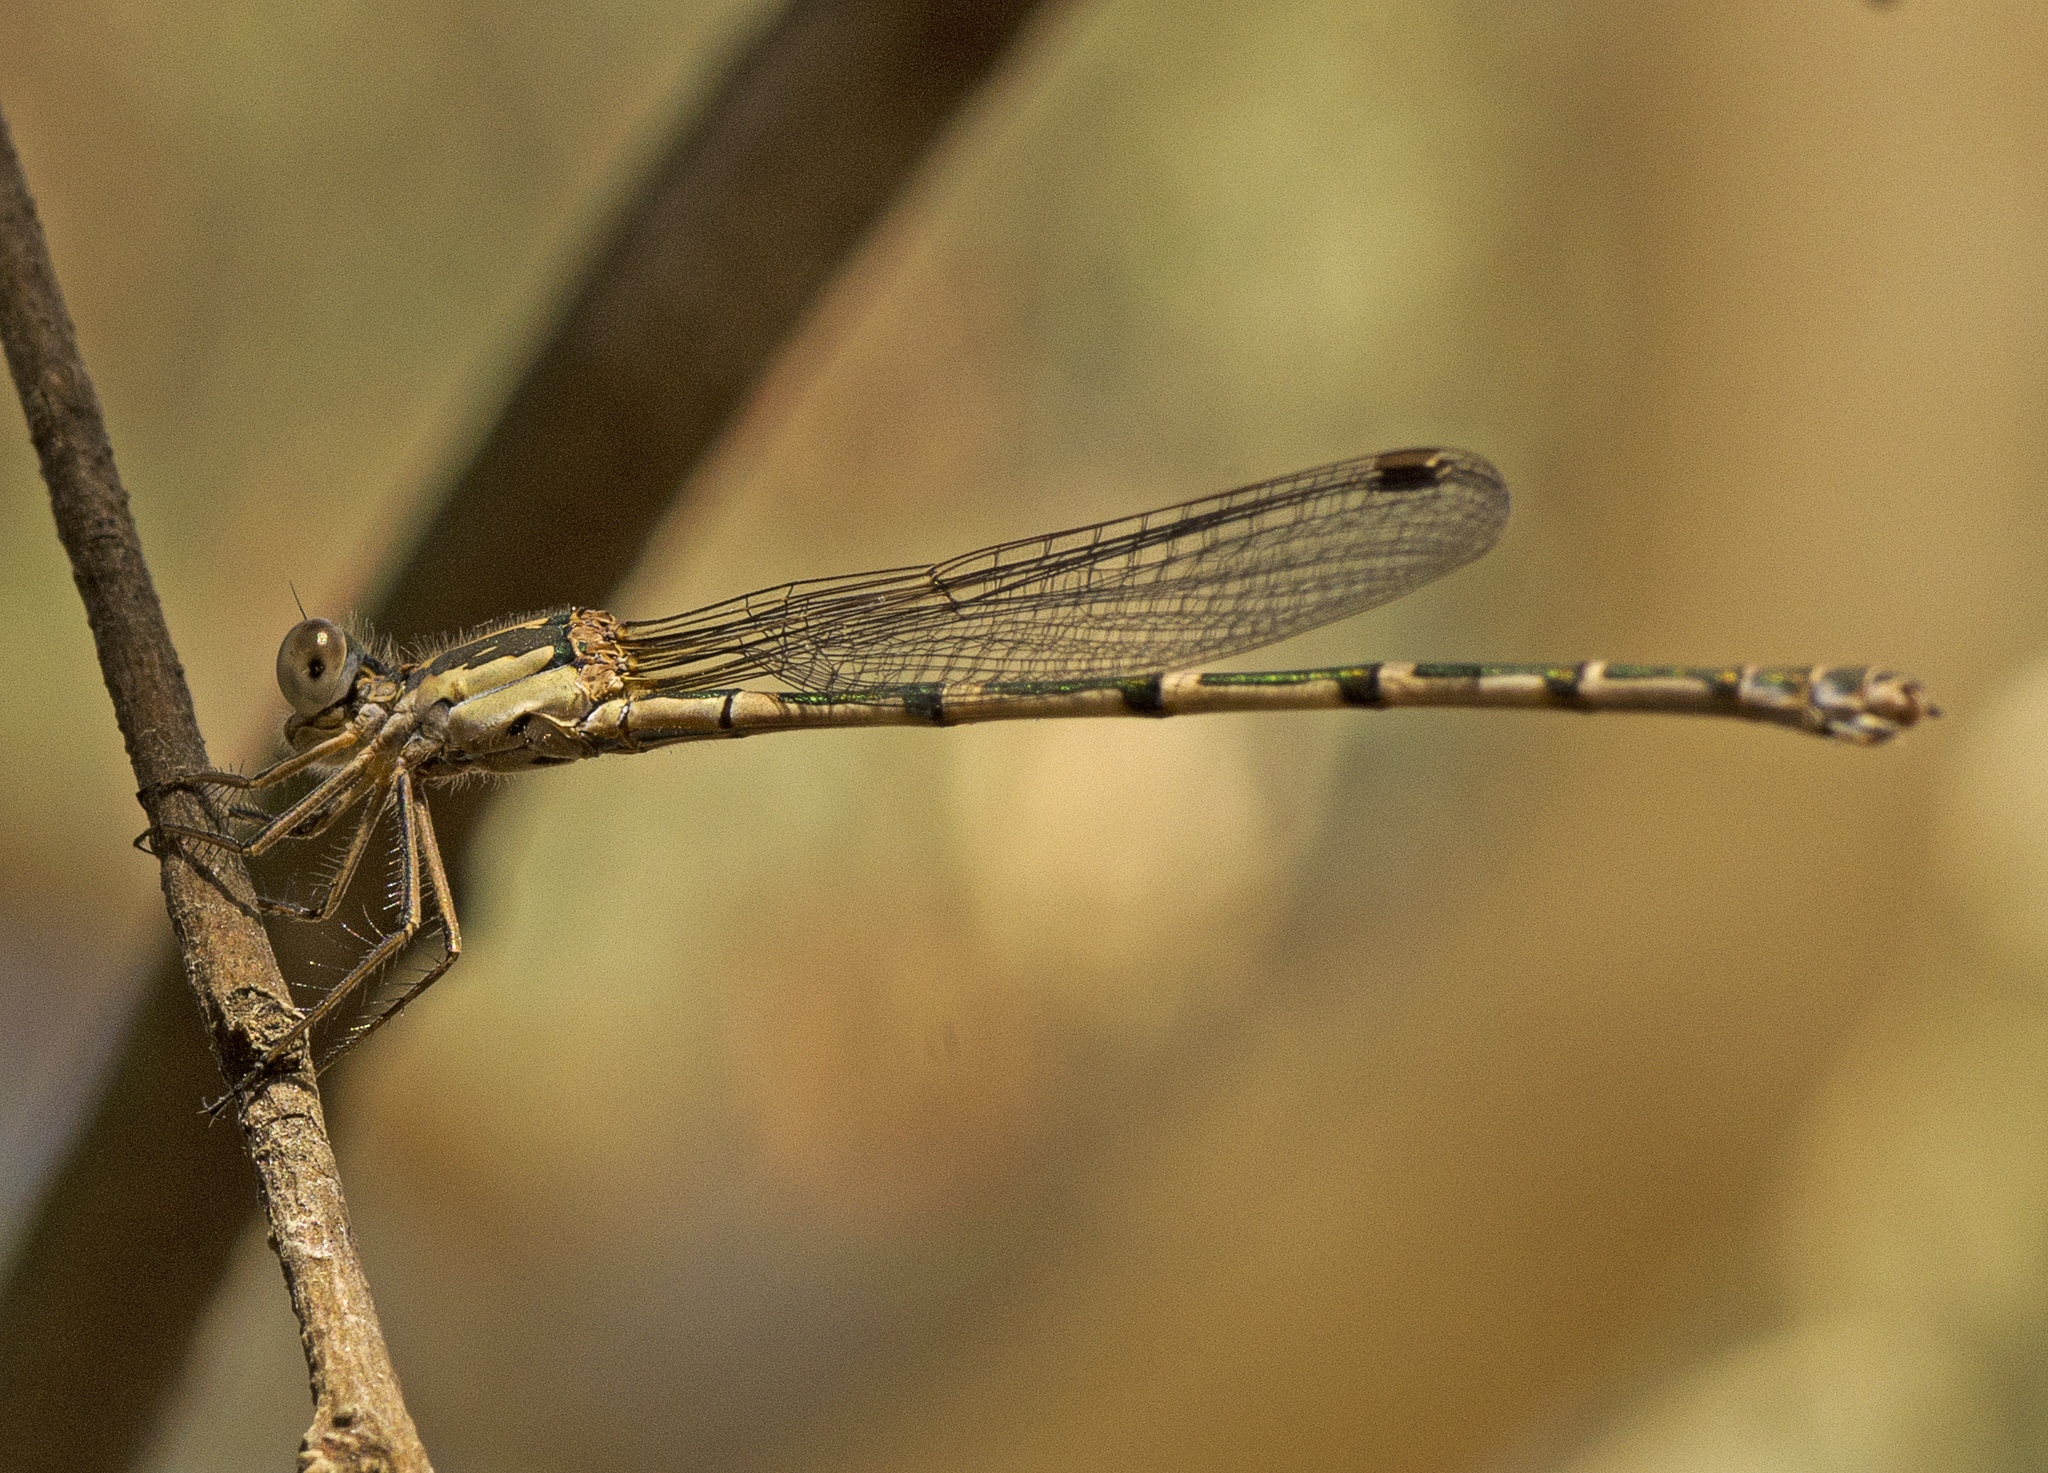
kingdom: Animalia
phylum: Arthropoda
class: Insecta
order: Odonata
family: Lestidae
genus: Austrolestes
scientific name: Austrolestes leda
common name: Wandering ringtail
